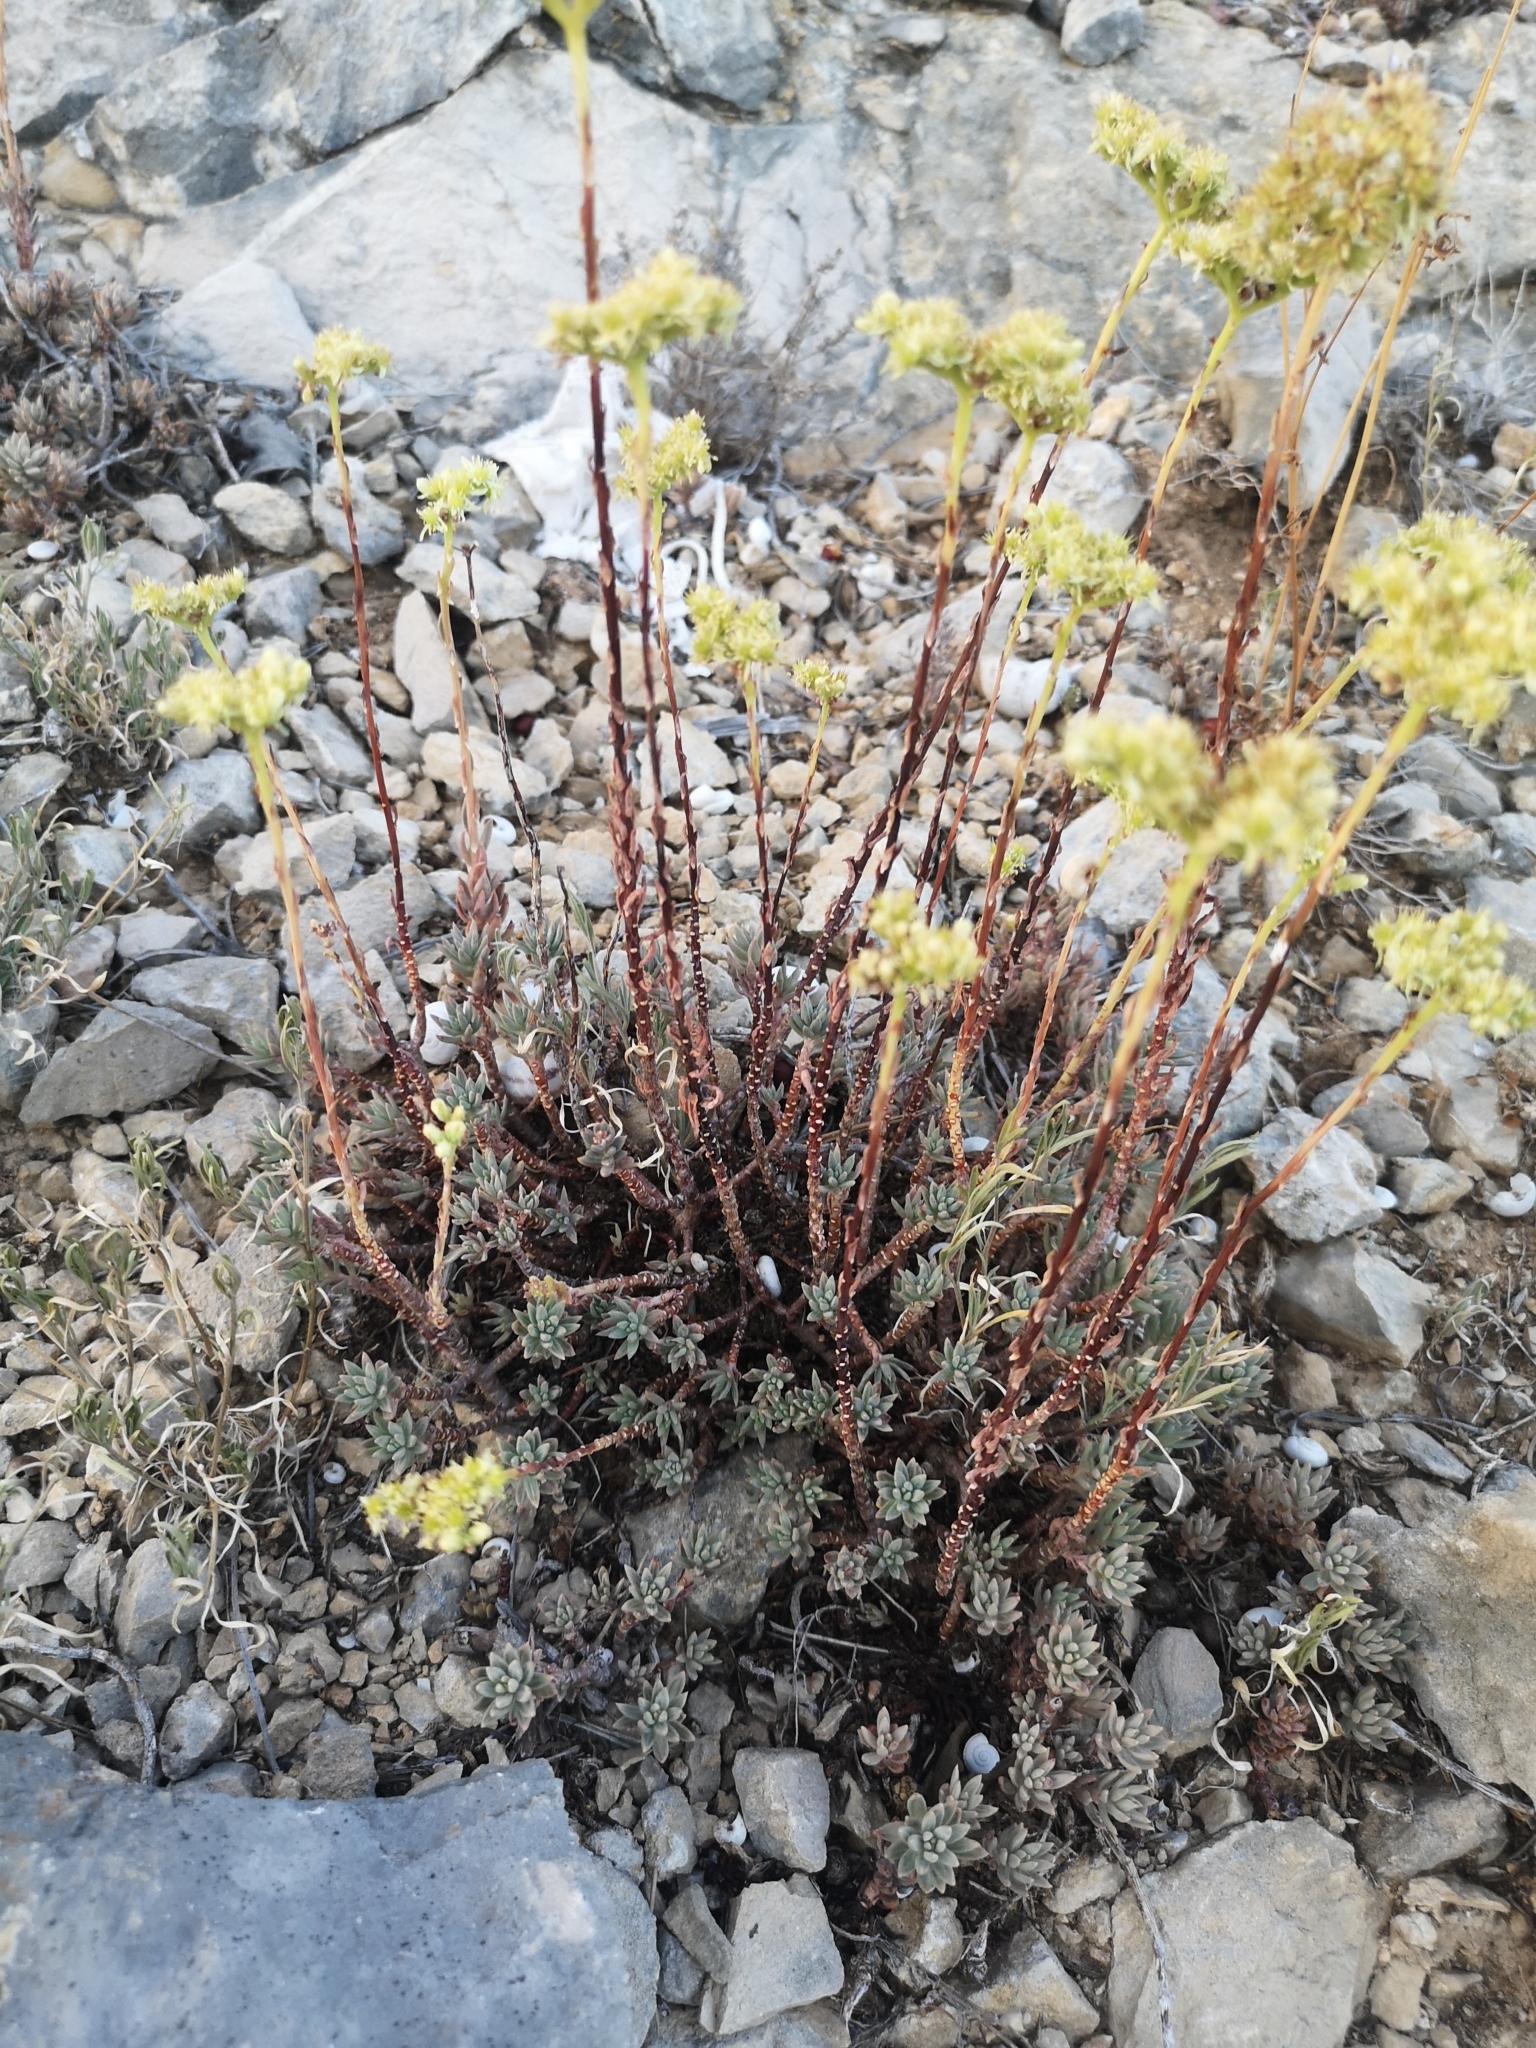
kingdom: Plantae
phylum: Tracheophyta
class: Magnoliopsida
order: Saxifragales
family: Crassulaceae
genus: Petrosedum
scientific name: Petrosedum sediforme
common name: Pale stonecrop
